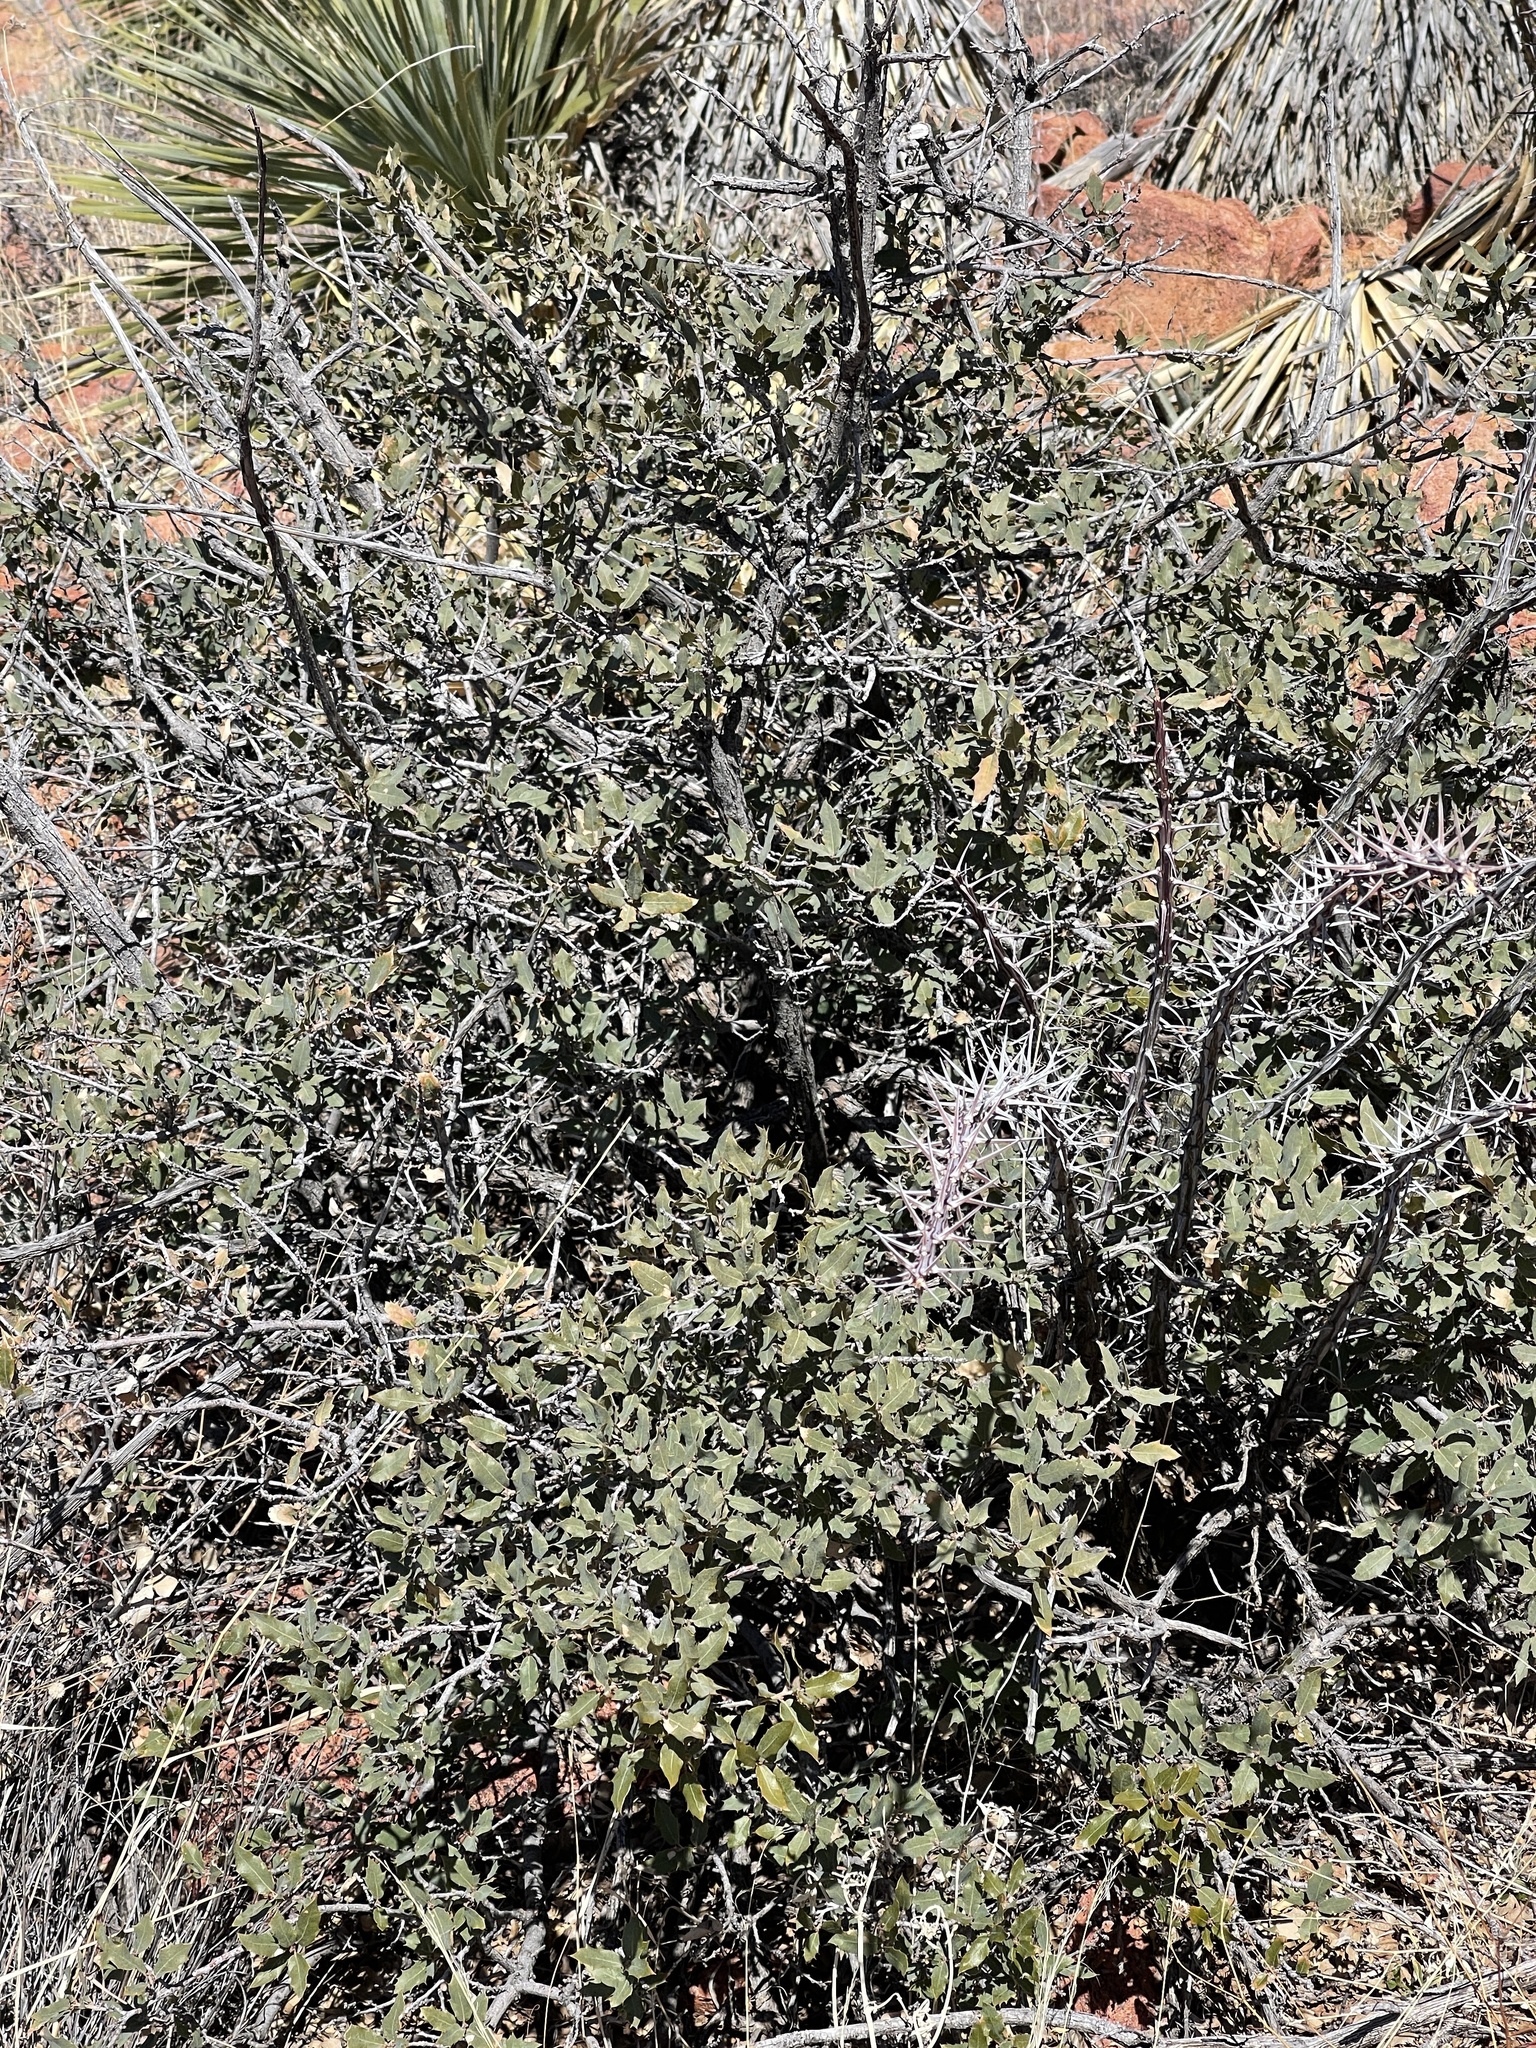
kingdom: Plantae
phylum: Tracheophyta
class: Magnoliopsida
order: Fagales
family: Fagaceae
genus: Quercus
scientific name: Quercus turbinella
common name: Sonoran scrub oak
